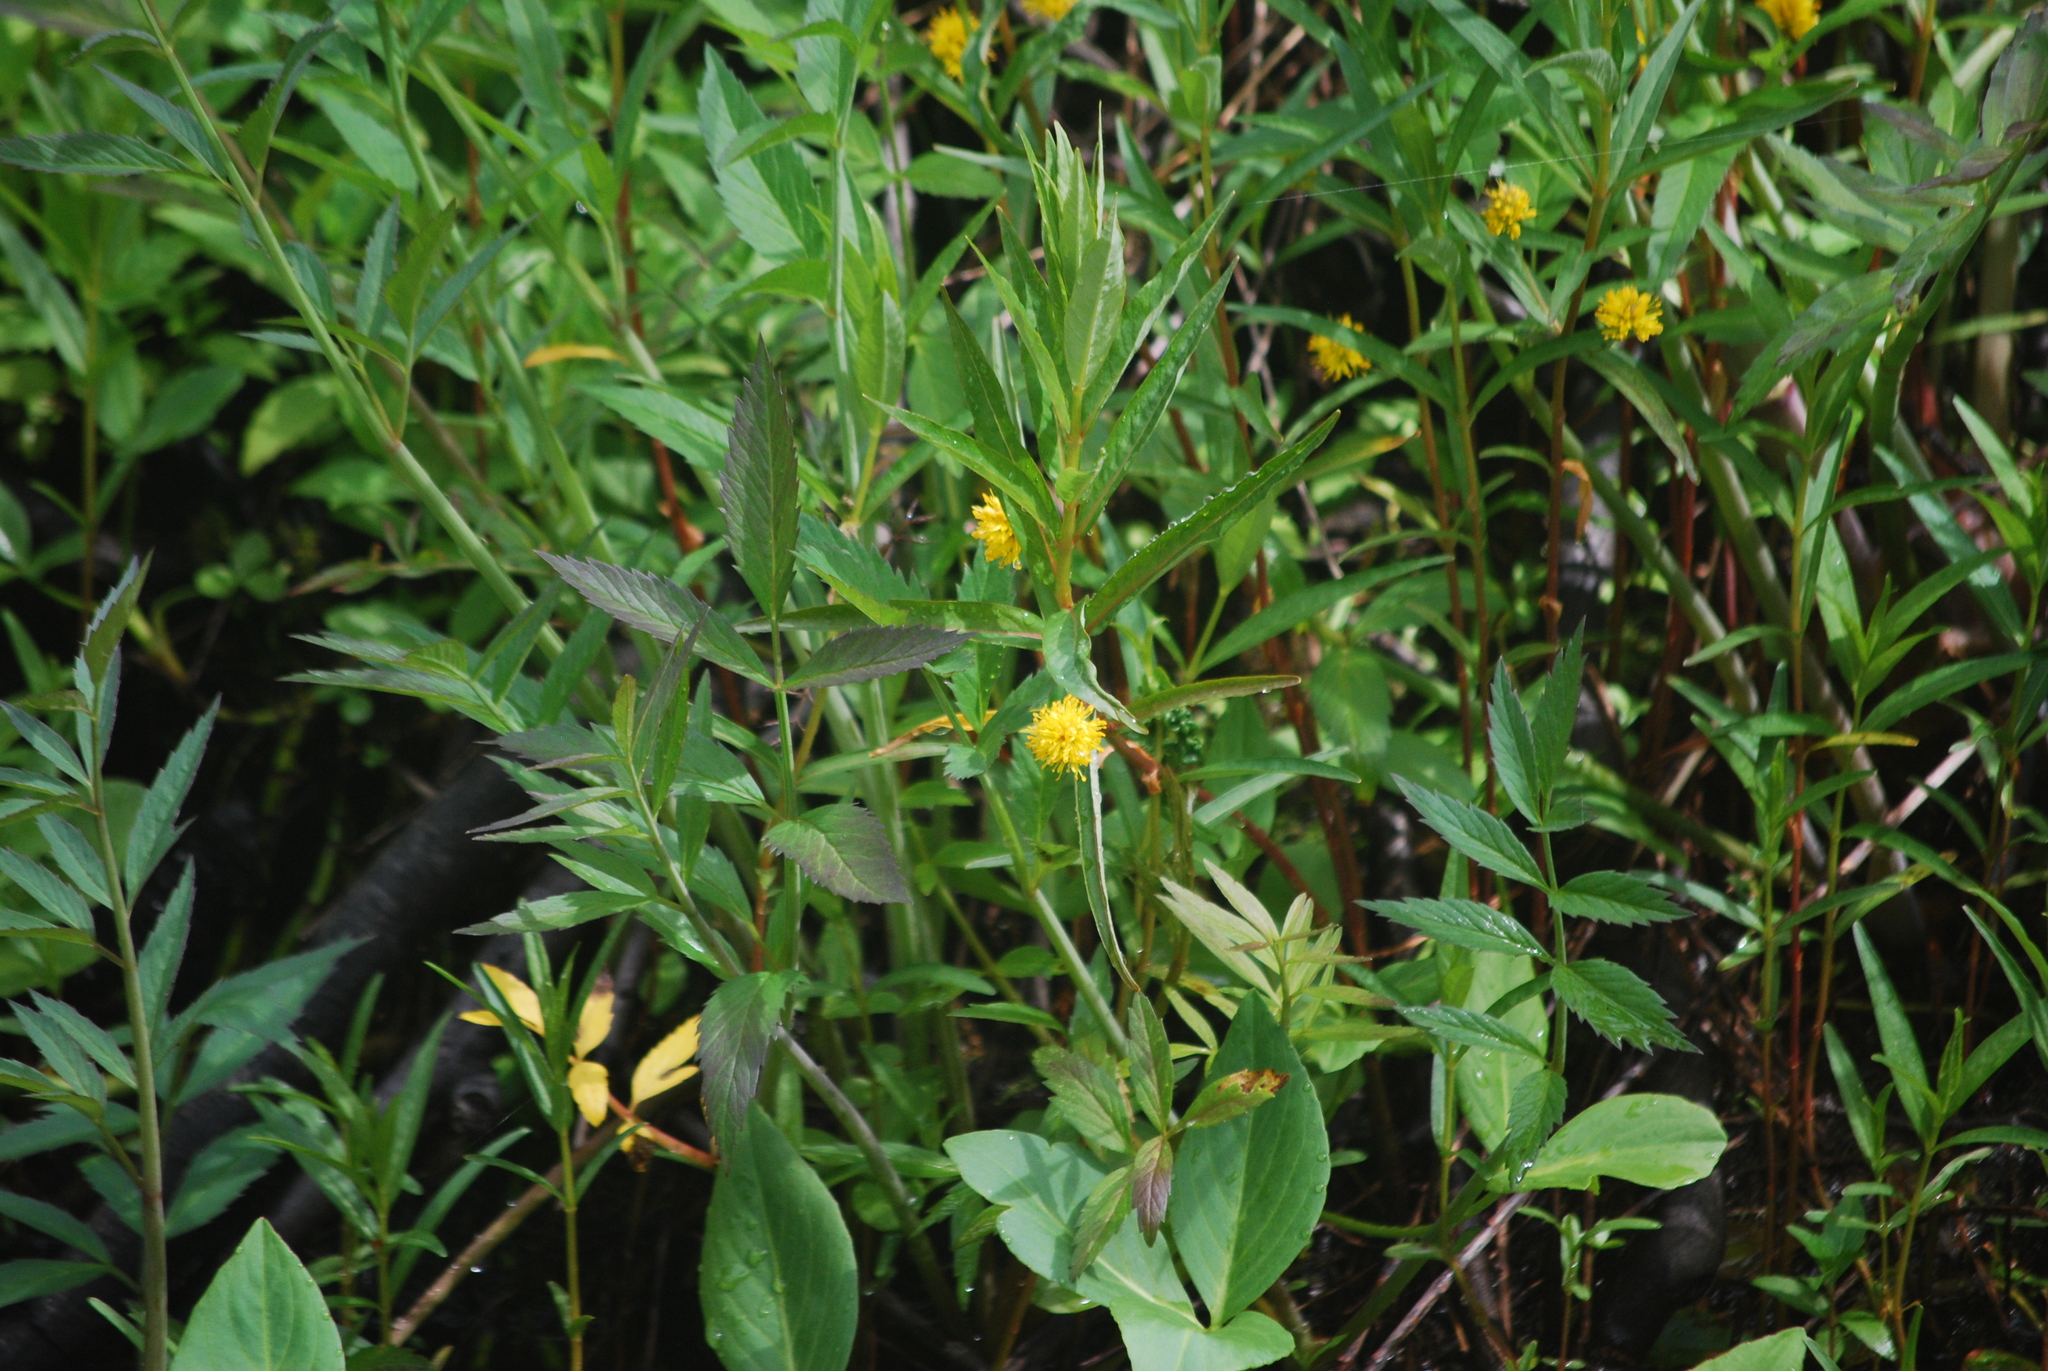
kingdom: Plantae
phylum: Tracheophyta
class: Magnoliopsida
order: Ericales
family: Primulaceae
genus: Lysimachia
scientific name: Lysimachia thyrsiflora
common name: Tufted loosestrife
